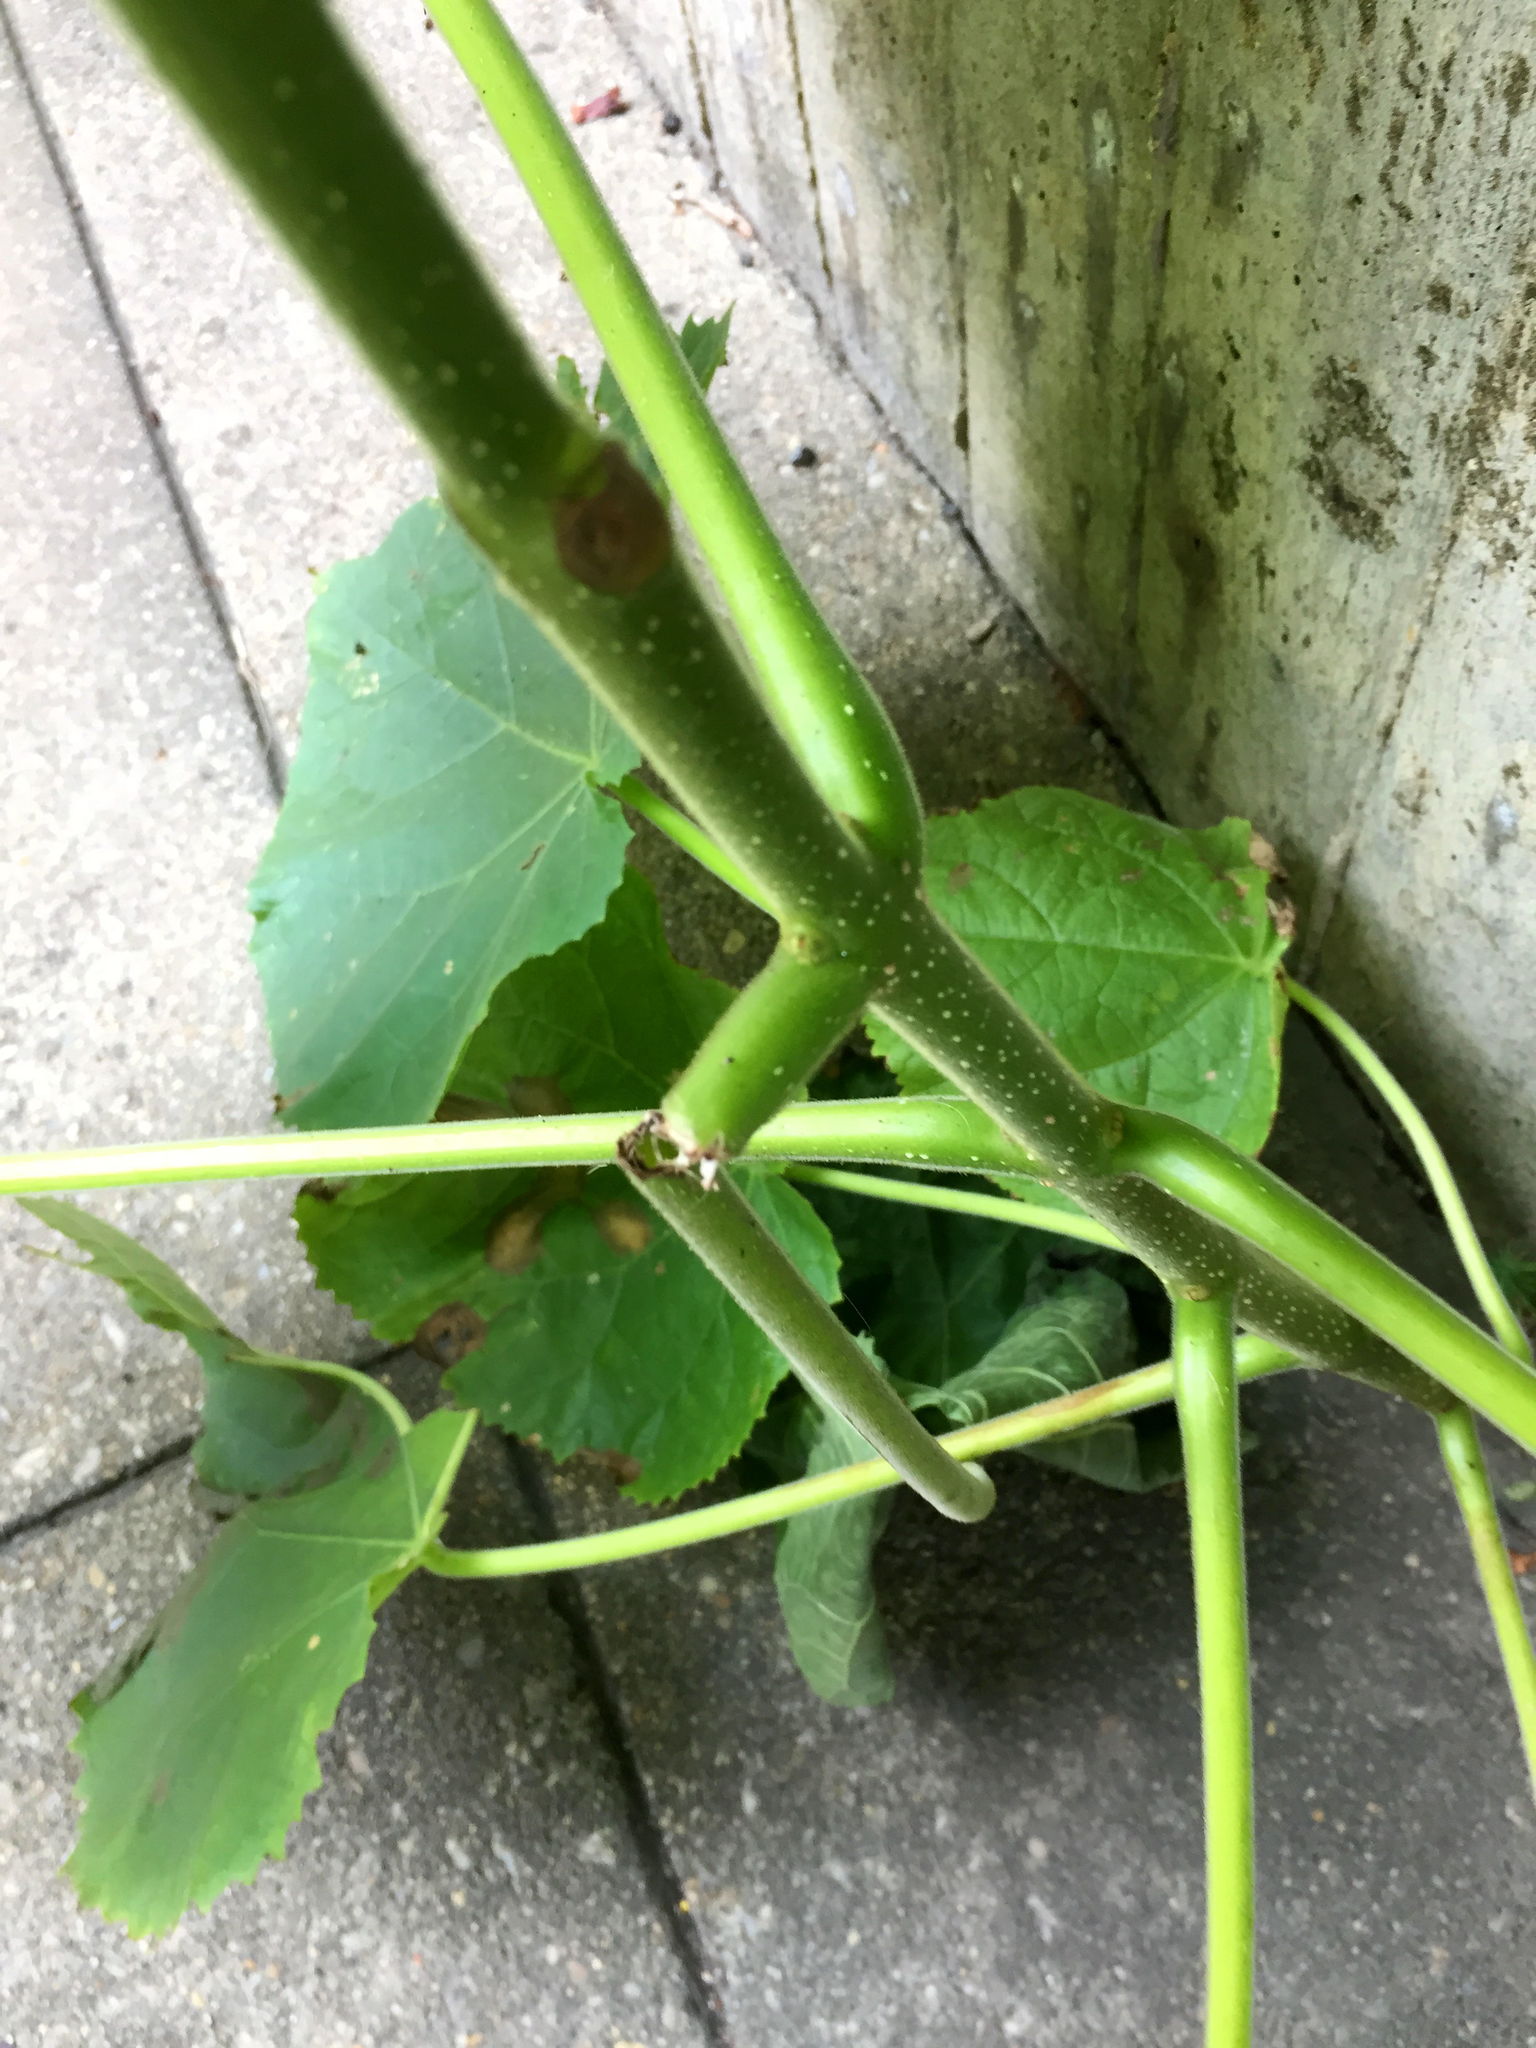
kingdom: Plantae
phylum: Tracheophyta
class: Magnoliopsida
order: Lamiales
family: Paulowniaceae
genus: Paulownia
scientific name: Paulownia tomentosa
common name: Foxglove-tree
